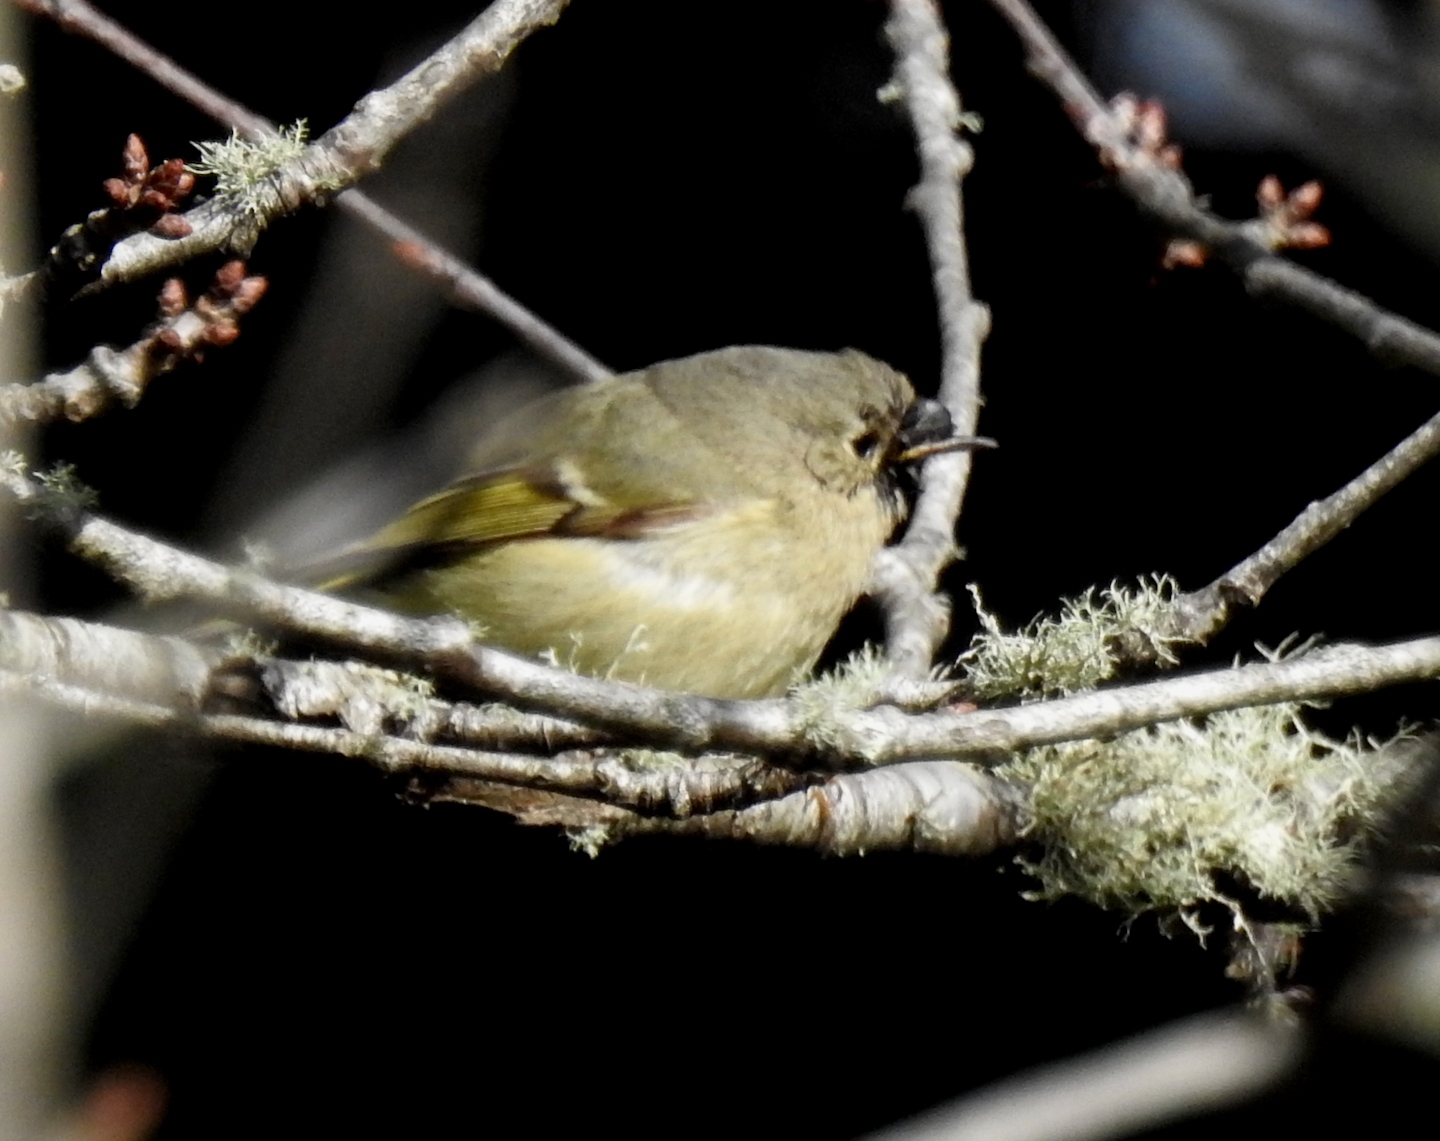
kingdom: Animalia
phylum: Chordata
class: Aves
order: Passeriformes
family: Regulidae
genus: Regulus
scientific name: Regulus calendula
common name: Ruby-crowned kinglet
